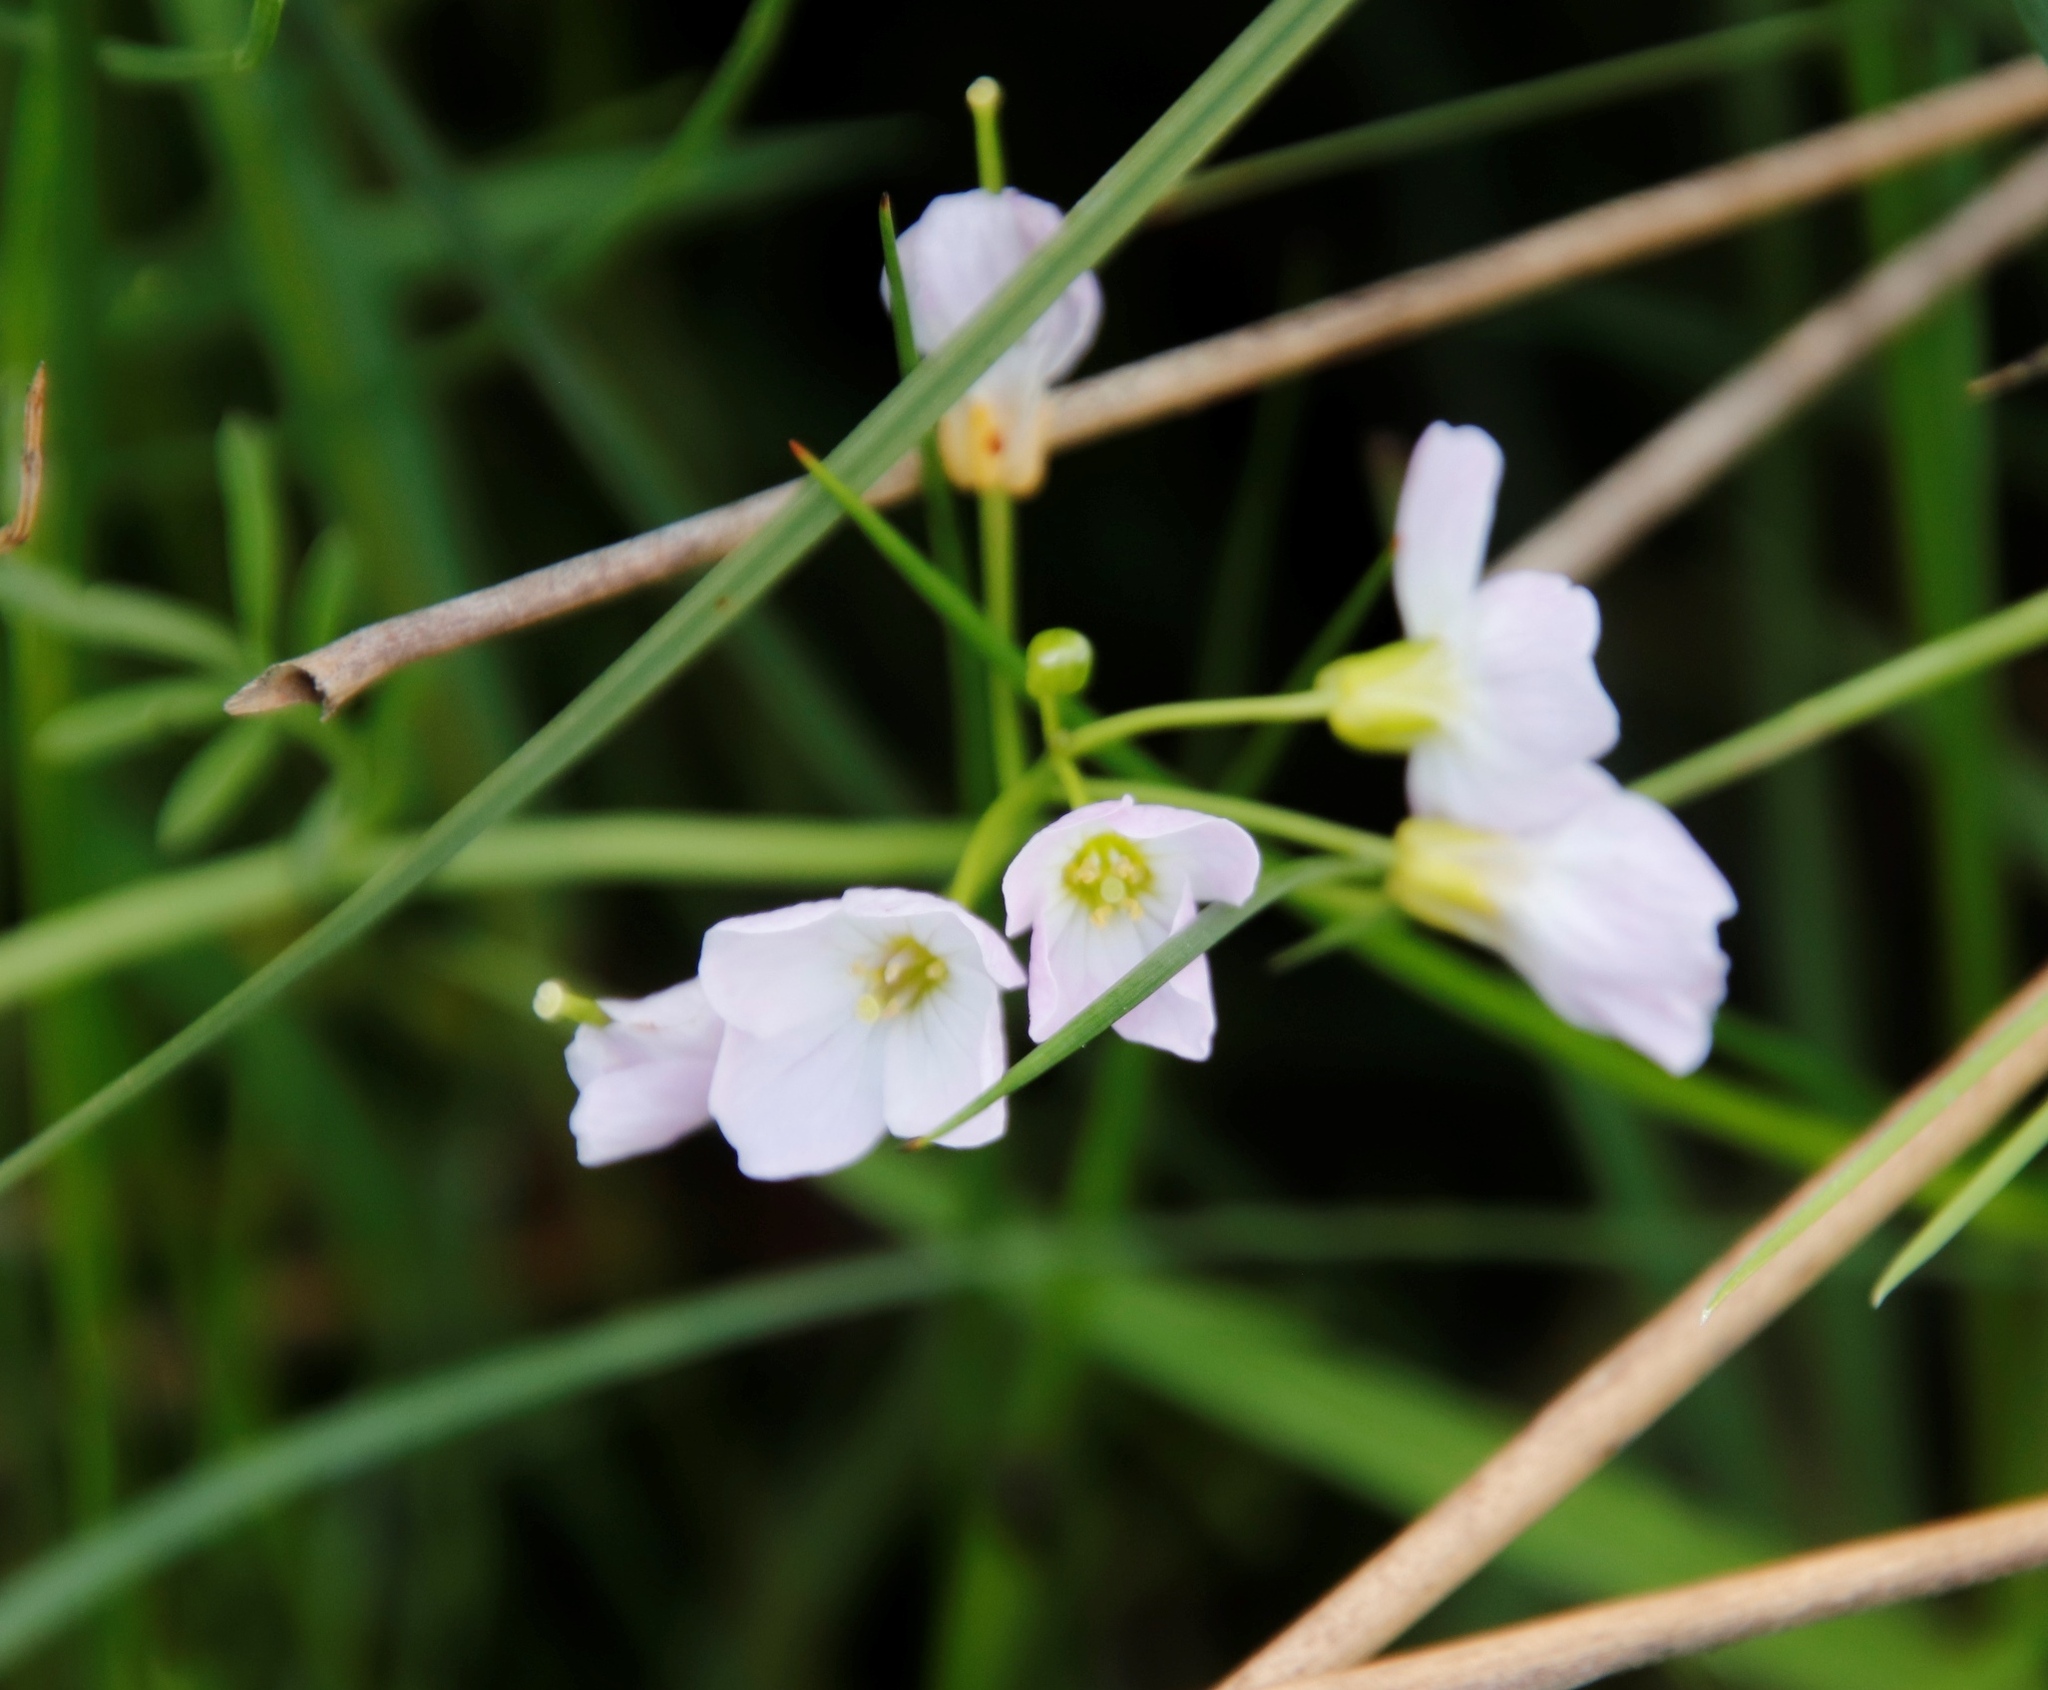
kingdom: Plantae
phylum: Tracheophyta
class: Magnoliopsida
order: Brassicales
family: Brassicaceae
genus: Cardamine
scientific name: Cardamine pratensis
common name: Cuckoo flower
